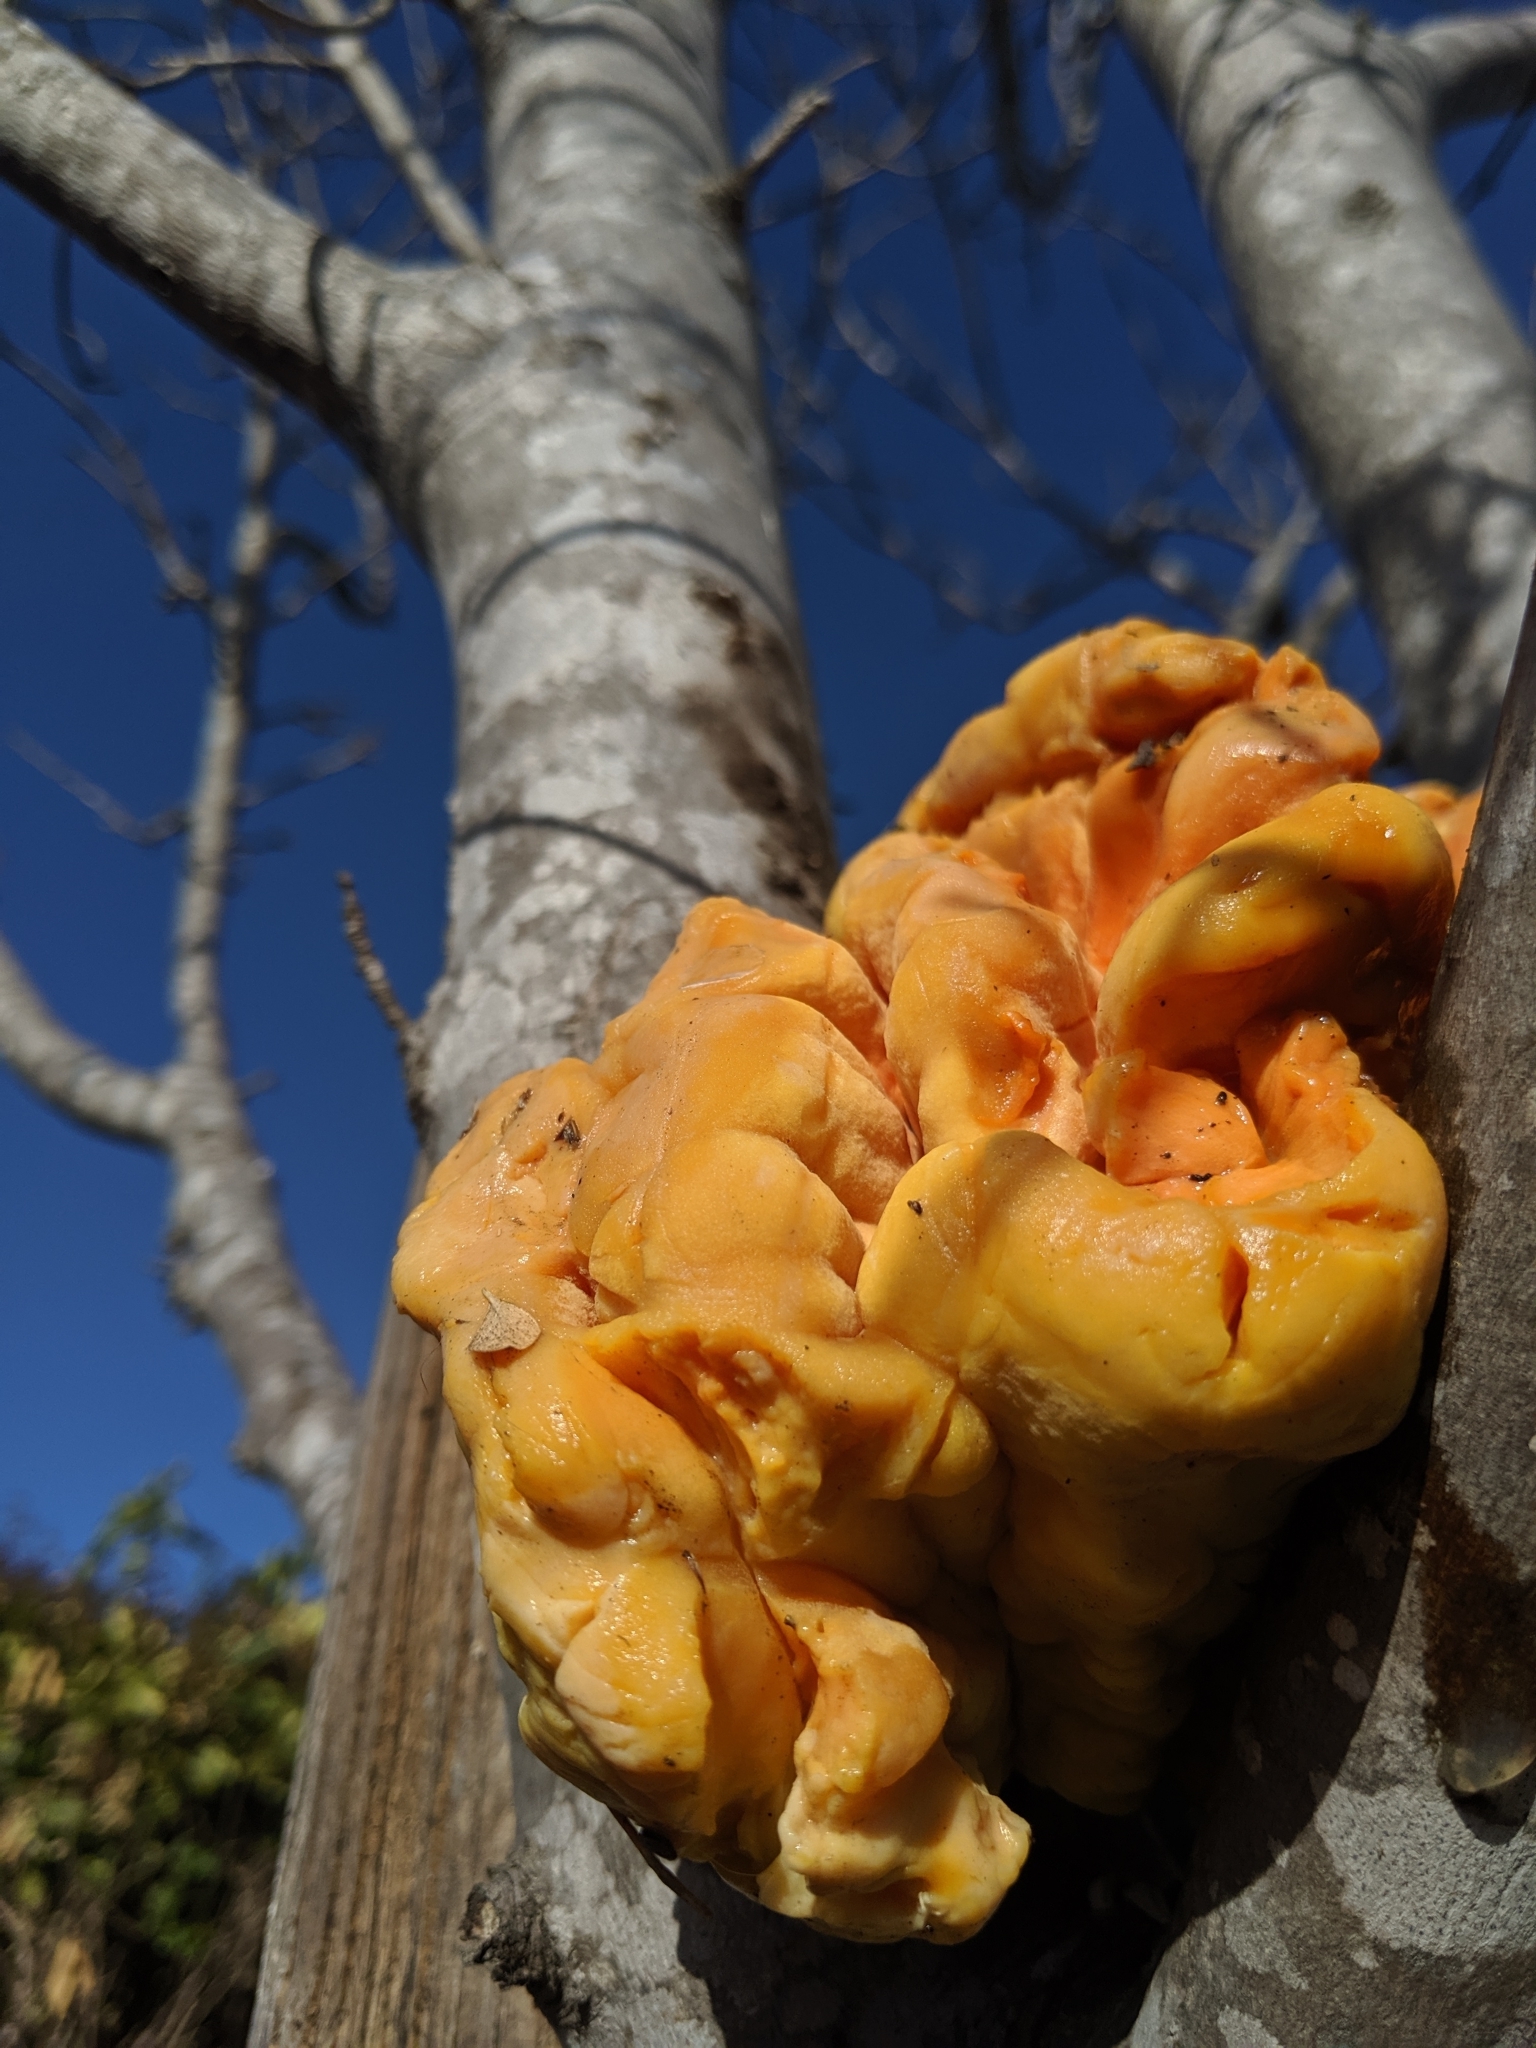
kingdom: Fungi
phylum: Basidiomycota
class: Agaricomycetes
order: Polyporales
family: Laetiporaceae
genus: Laetiporus
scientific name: Laetiporus gilbertsonii
